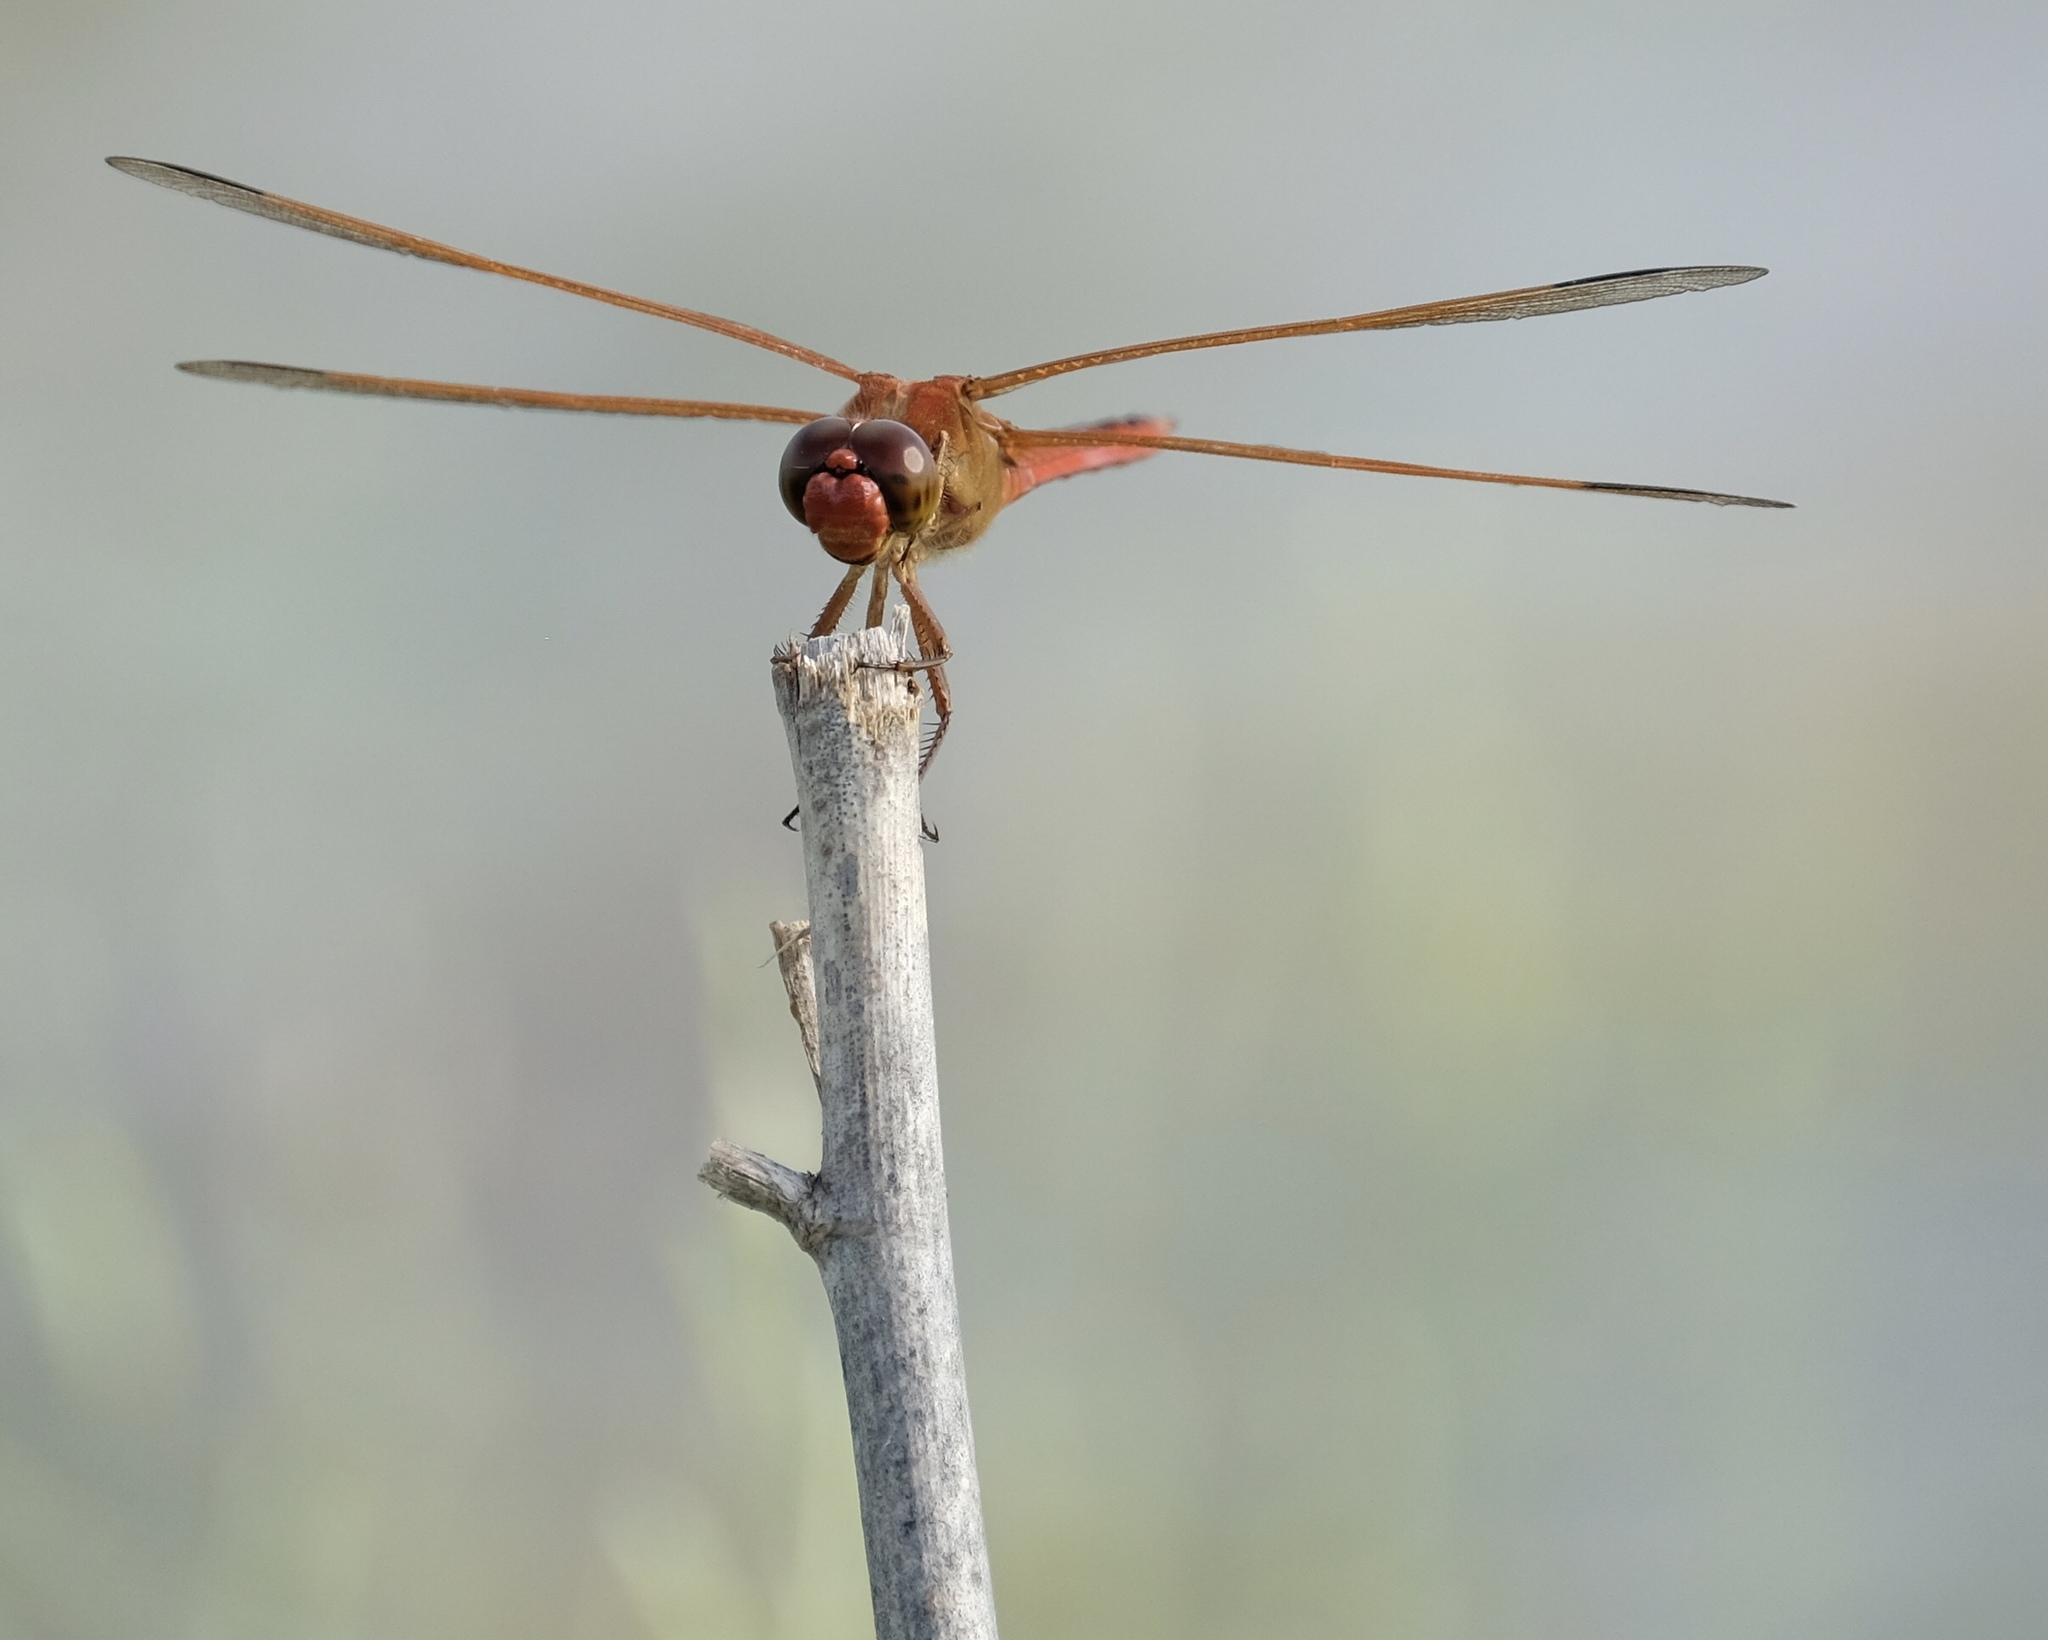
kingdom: Animalia
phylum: Arthropoda
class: Insecta
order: Odonata
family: Libellulidae
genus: Libellula
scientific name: Libellula needhami
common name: Needham's skimmer
